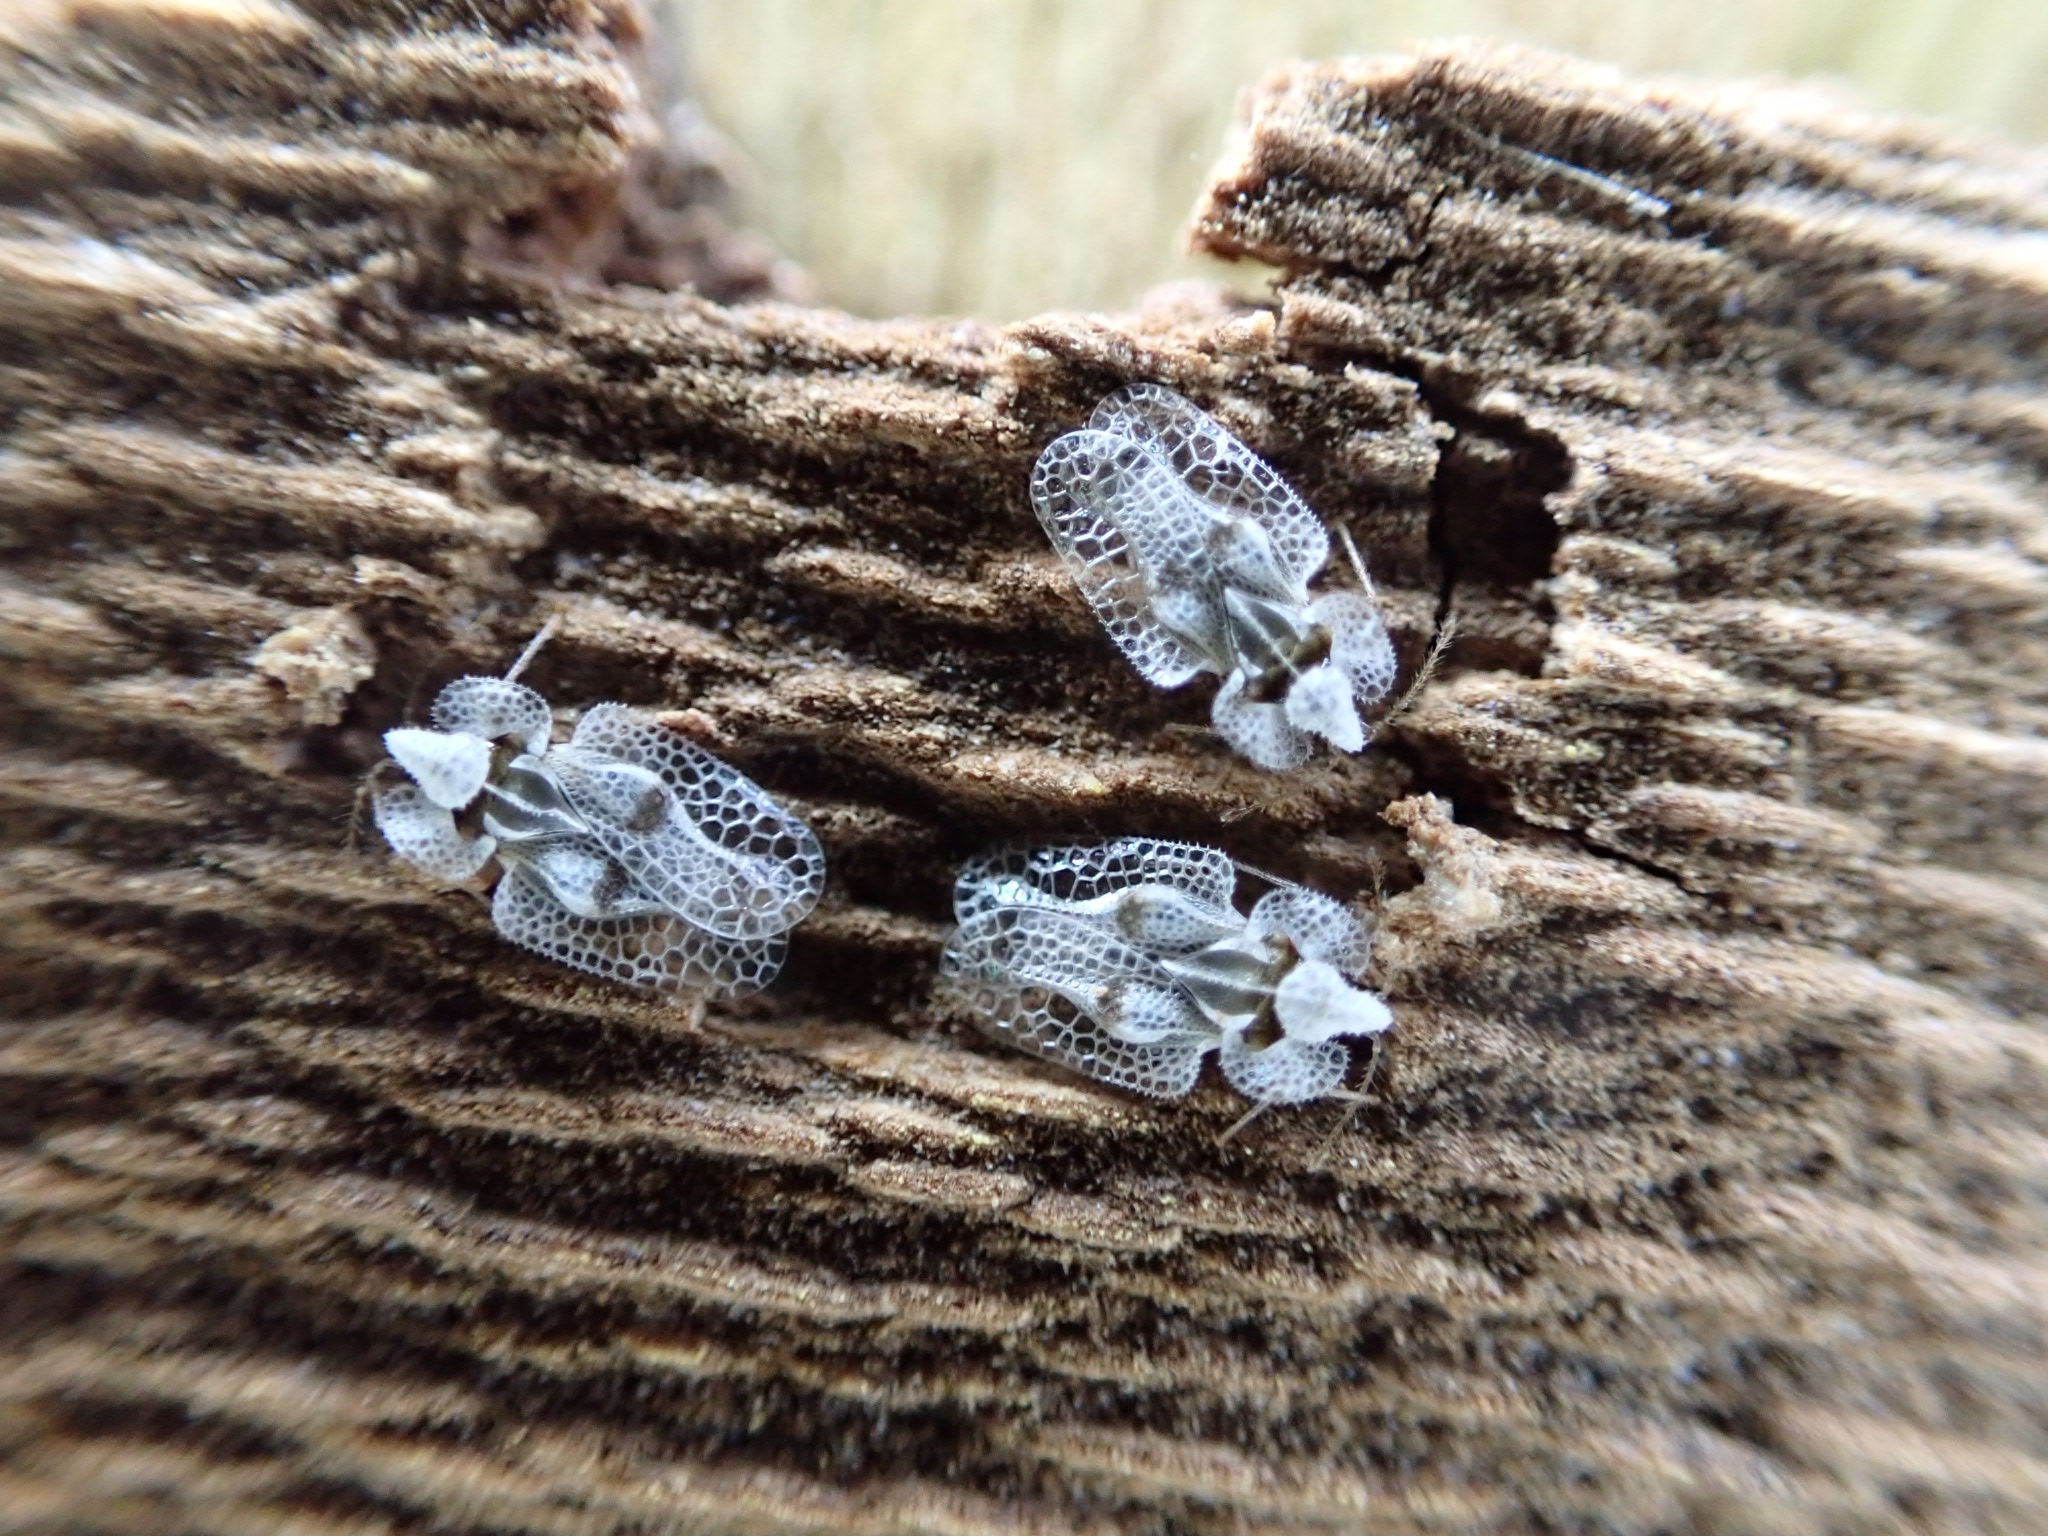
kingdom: Animalia
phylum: Arthropoda
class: Insecta
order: Hemiptera
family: Tingidae
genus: Corythucha
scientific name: Corythucha ciliata
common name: Sycamore lace bug
